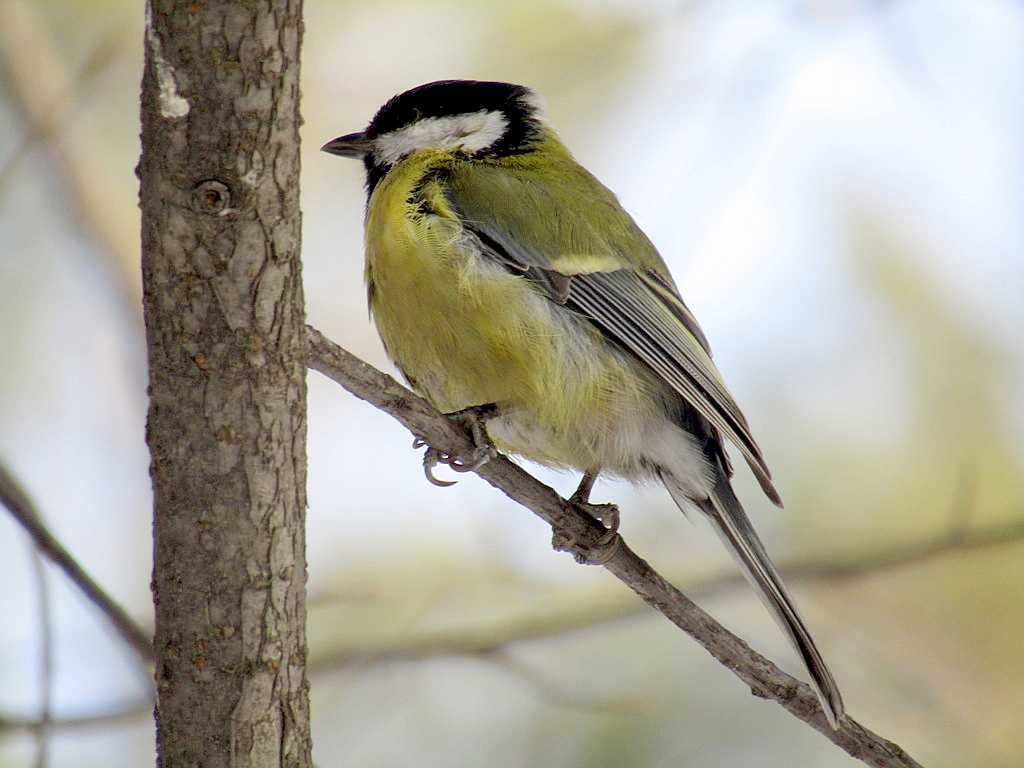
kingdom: Animalia
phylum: Chordata
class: Aves
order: Passeriformes
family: Paridae
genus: Parus
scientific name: Parus major
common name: Great tit
